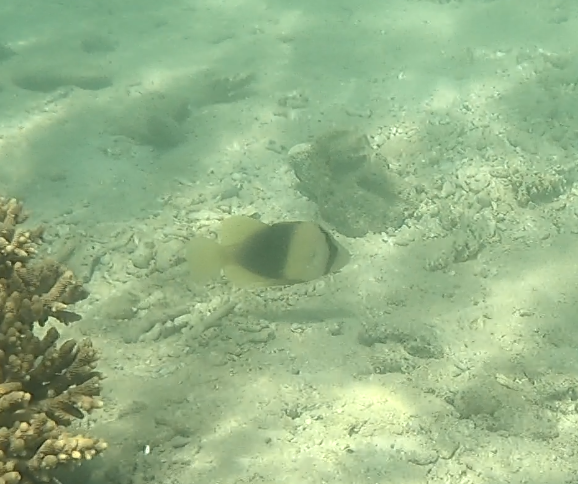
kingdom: Animalia
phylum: Chordata
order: Perciformes
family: Serranidae
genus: Diploprion
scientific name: Diploprion bifasciatum
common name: Barred soapfish
